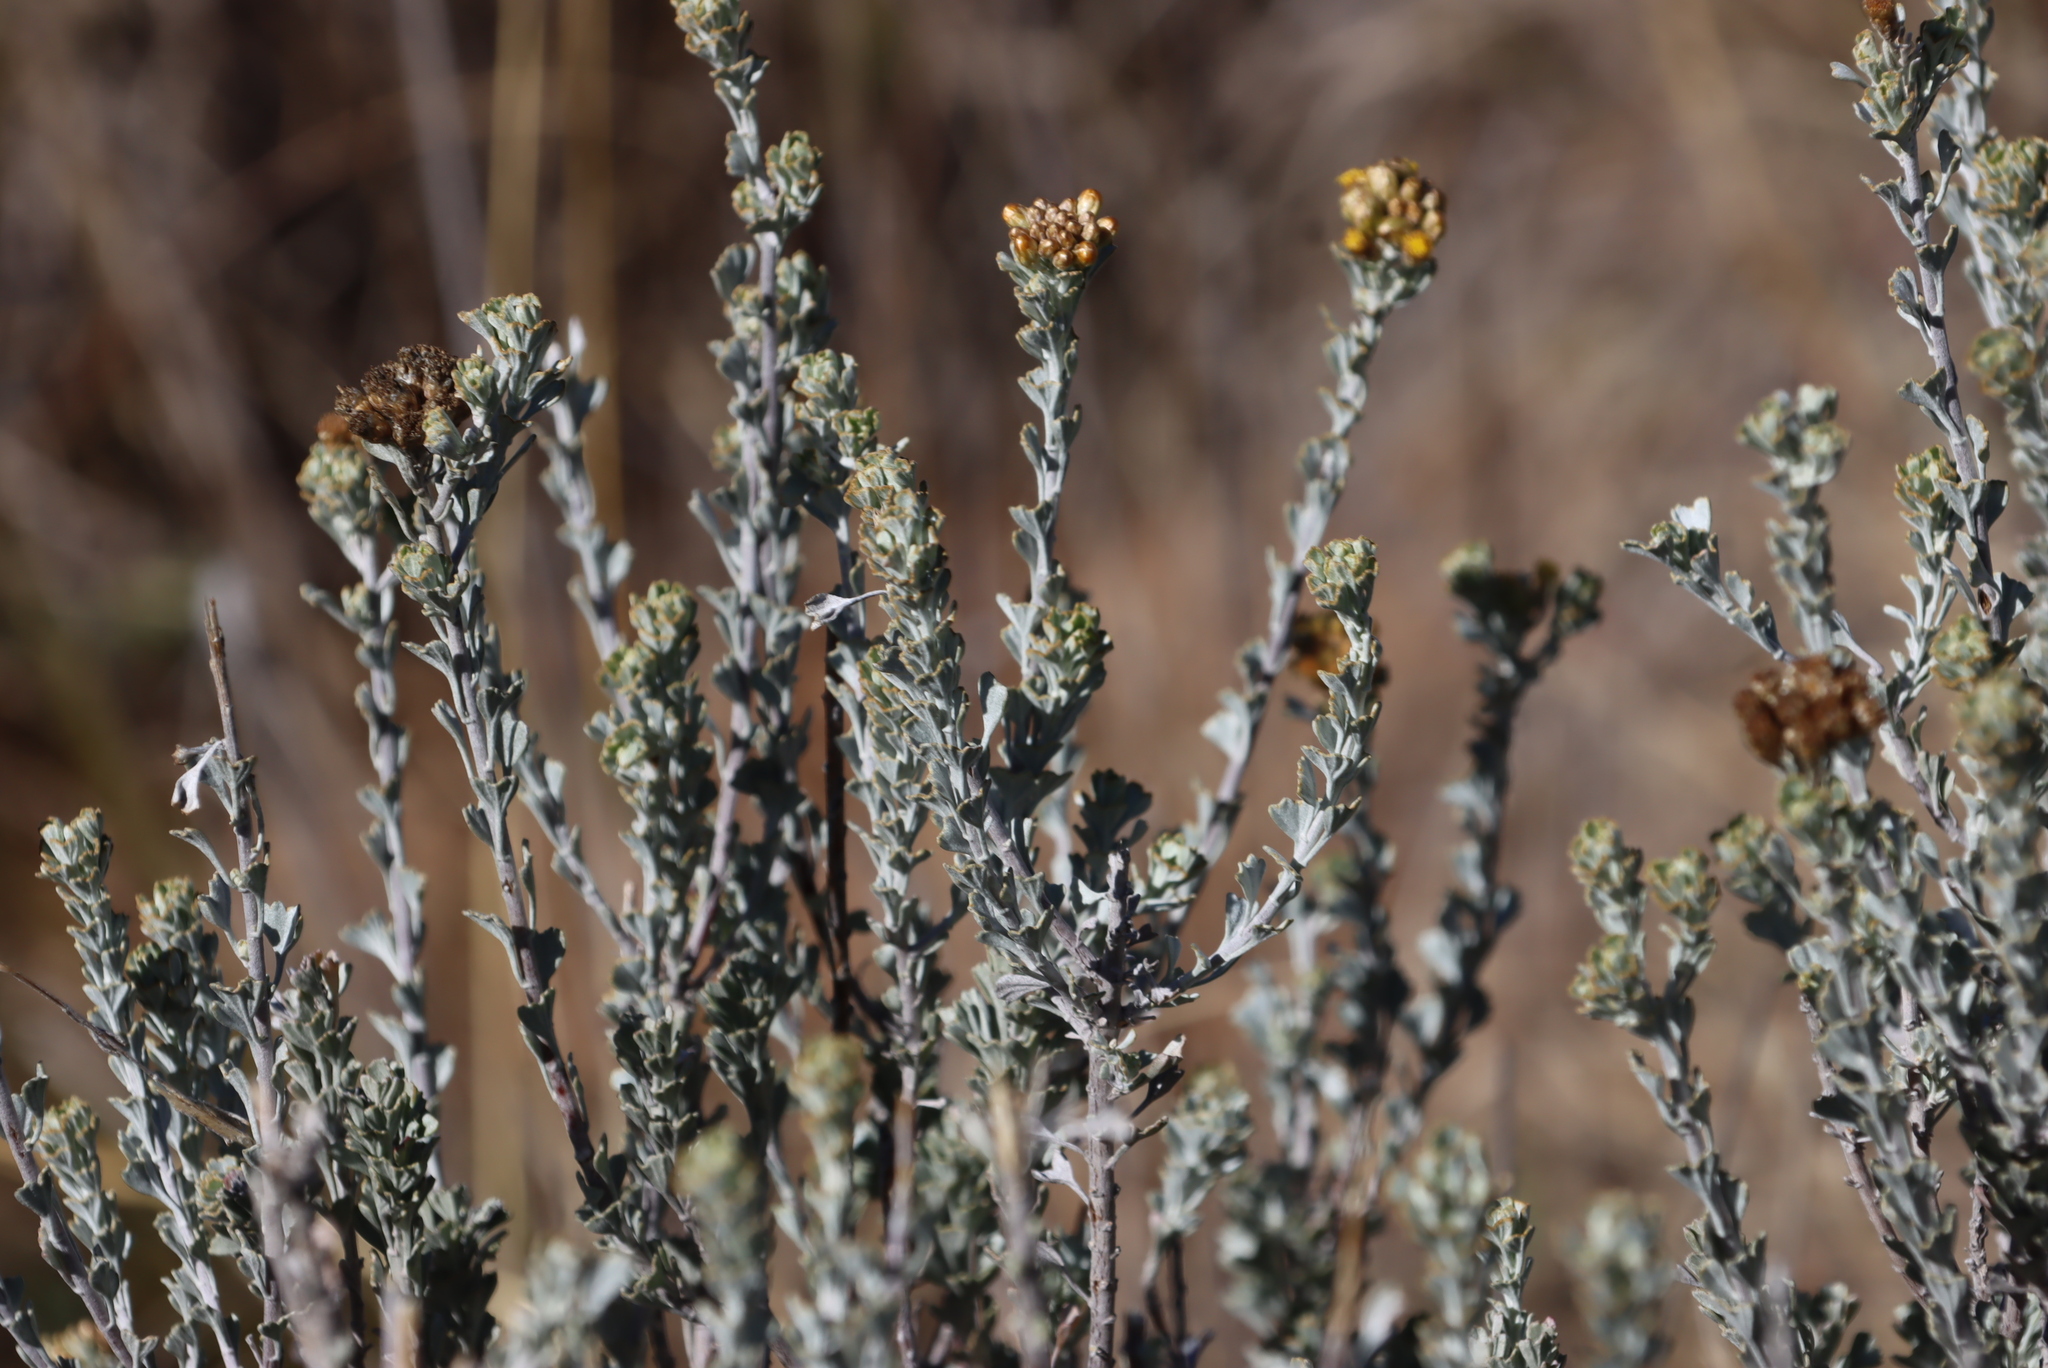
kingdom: Plantae
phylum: Tracheophyta
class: Magnoliopsida
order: Asterales
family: Asteraceae
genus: Pentzia
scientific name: Pentzia dentata
